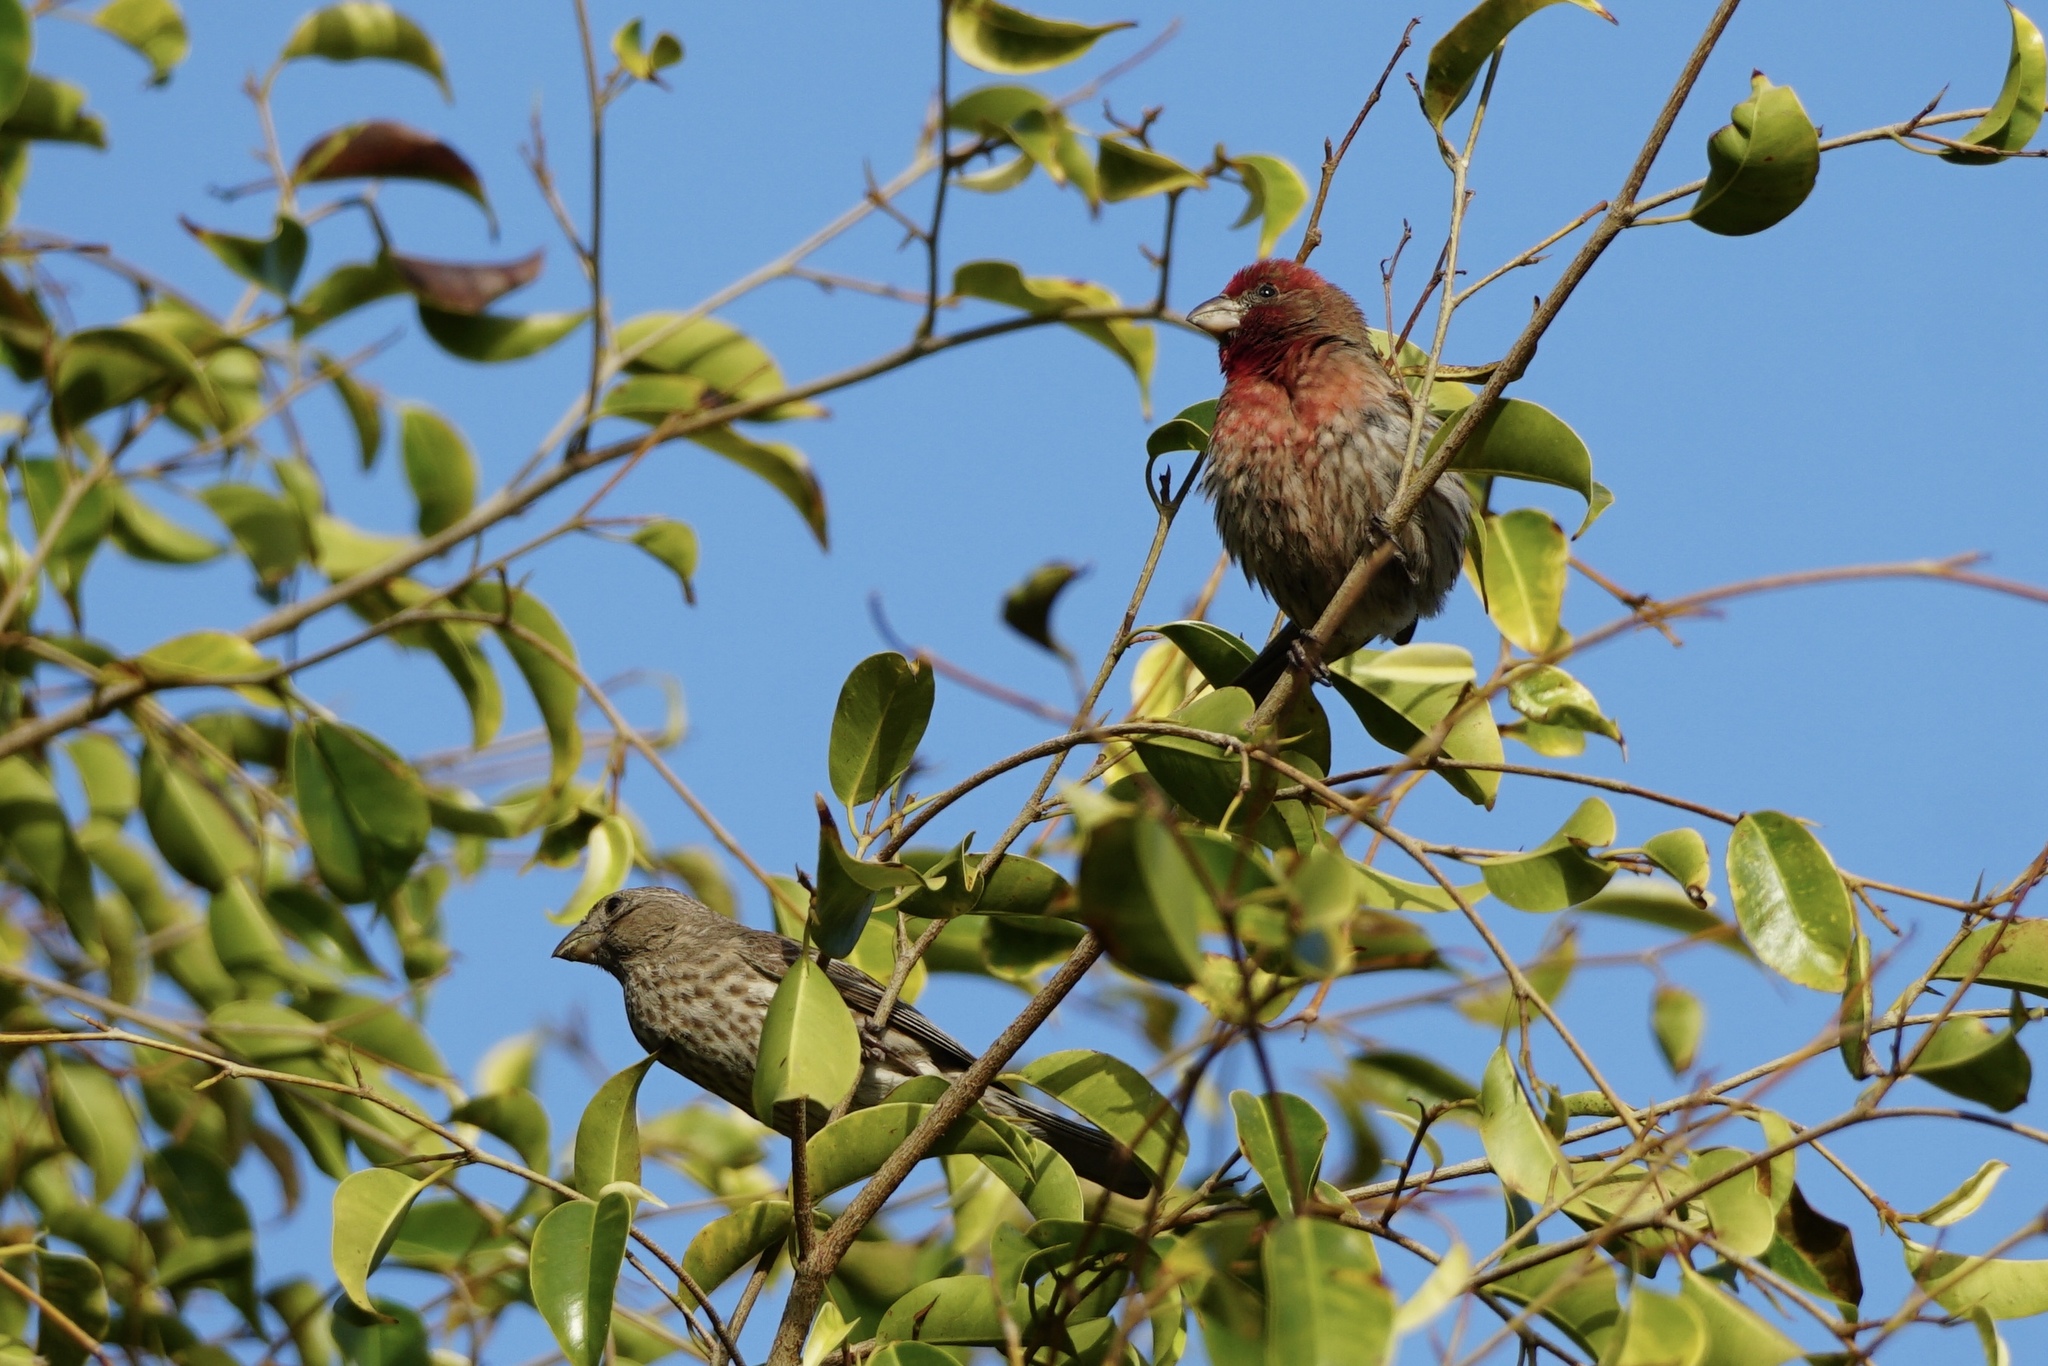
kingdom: Animalia
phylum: Chordata
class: Aves
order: Passeriformes
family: Fringillidae
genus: Haemorhous
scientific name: Haemorhous mexicanus
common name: House finch
